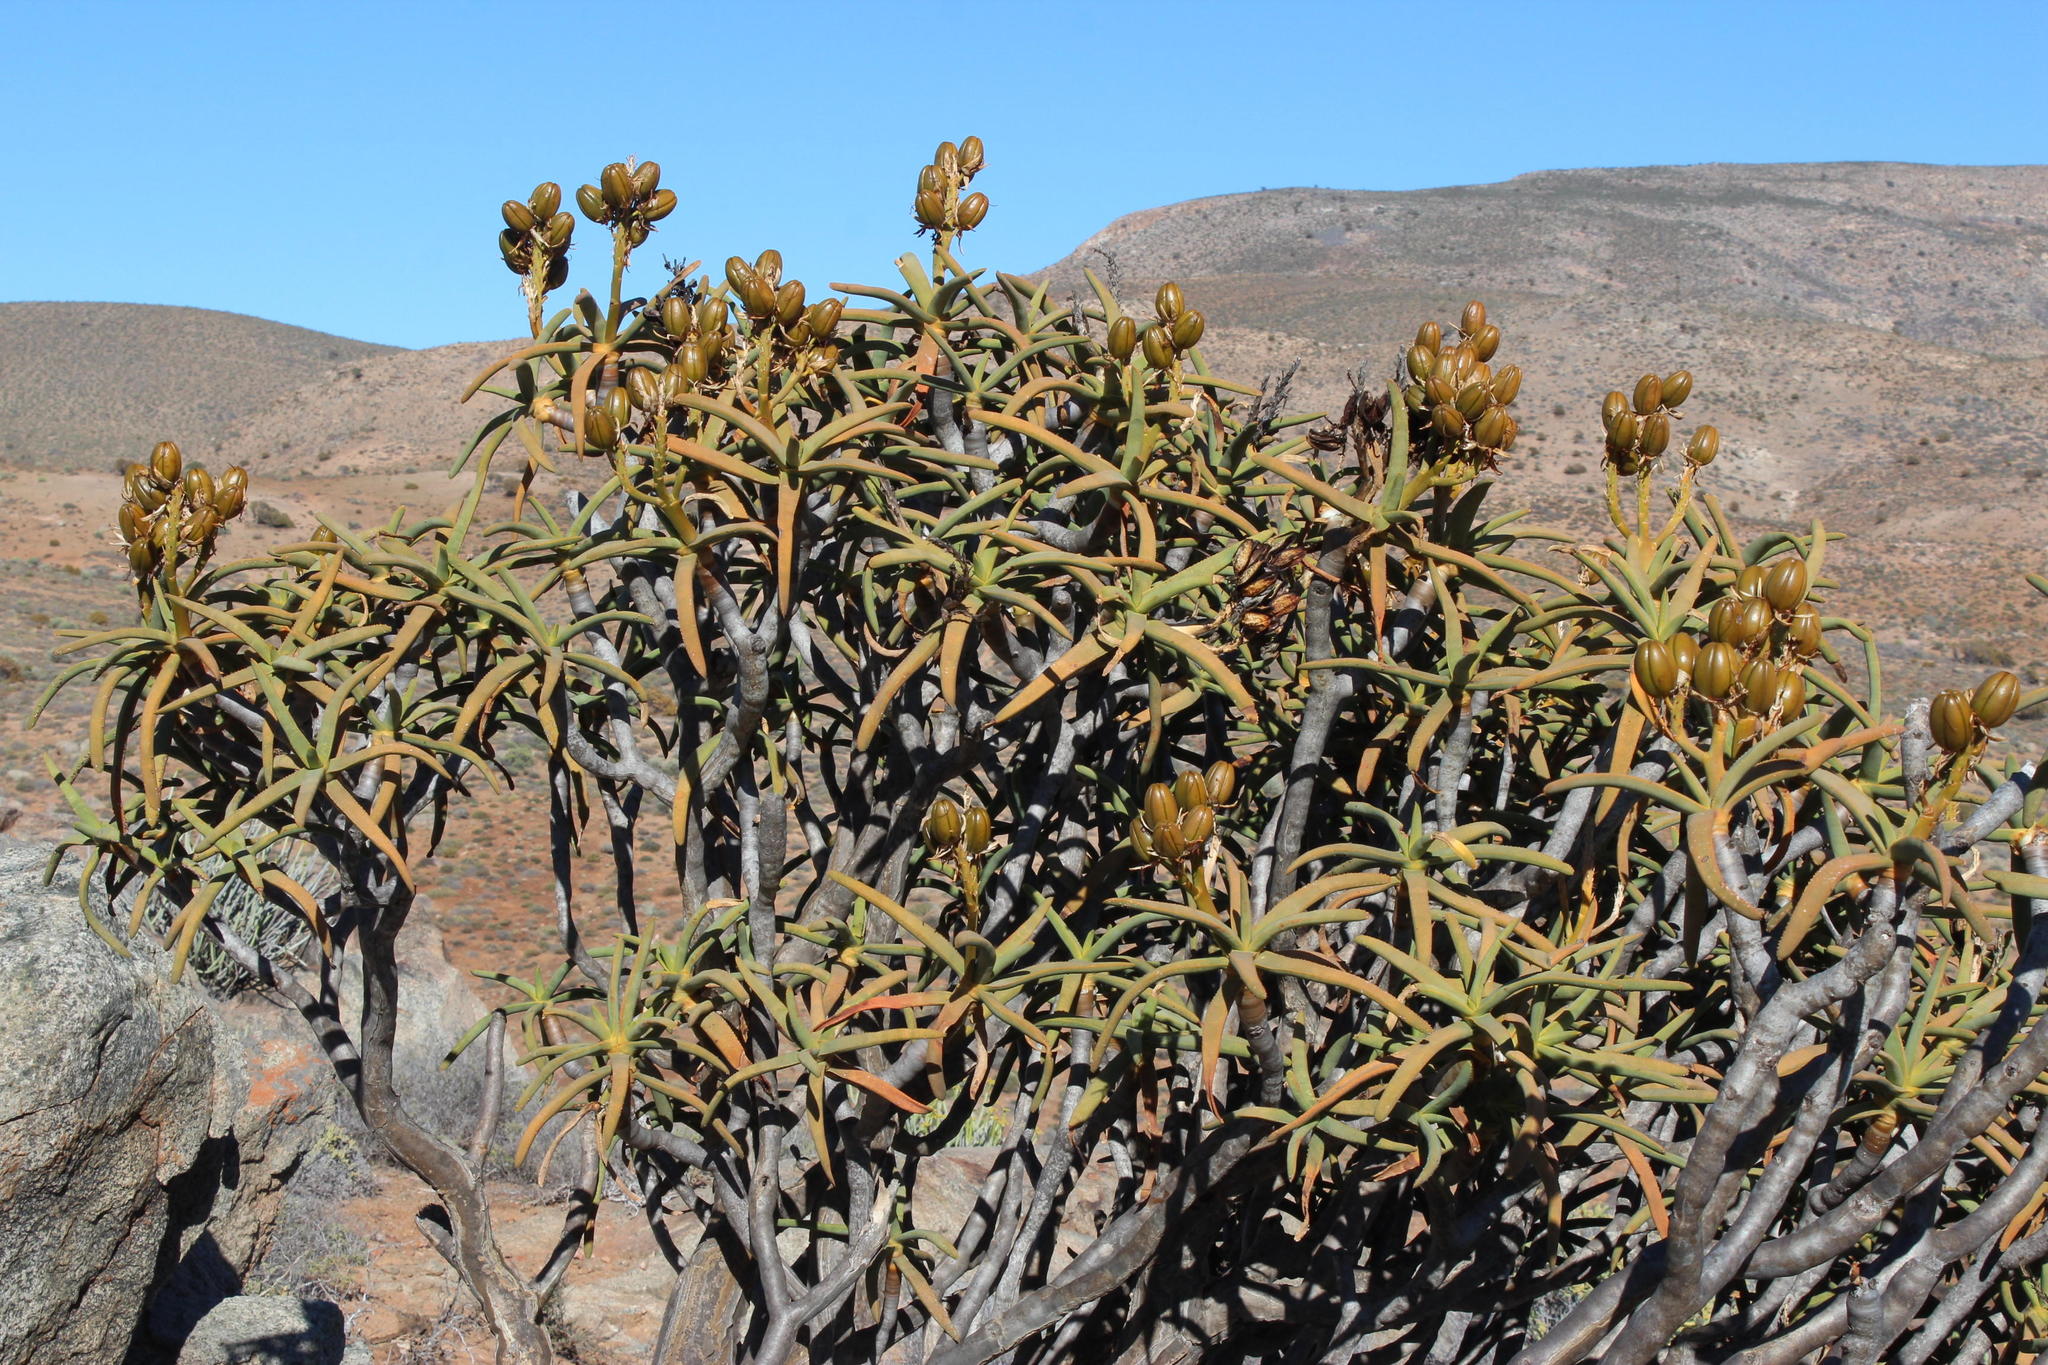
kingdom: Plantae
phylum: Tracheophyta
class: Liliopsida
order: Asparagales
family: Asphodelaceae
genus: Aloidendron
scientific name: Aloidendron ramosissimum
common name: Bush quiver tree
